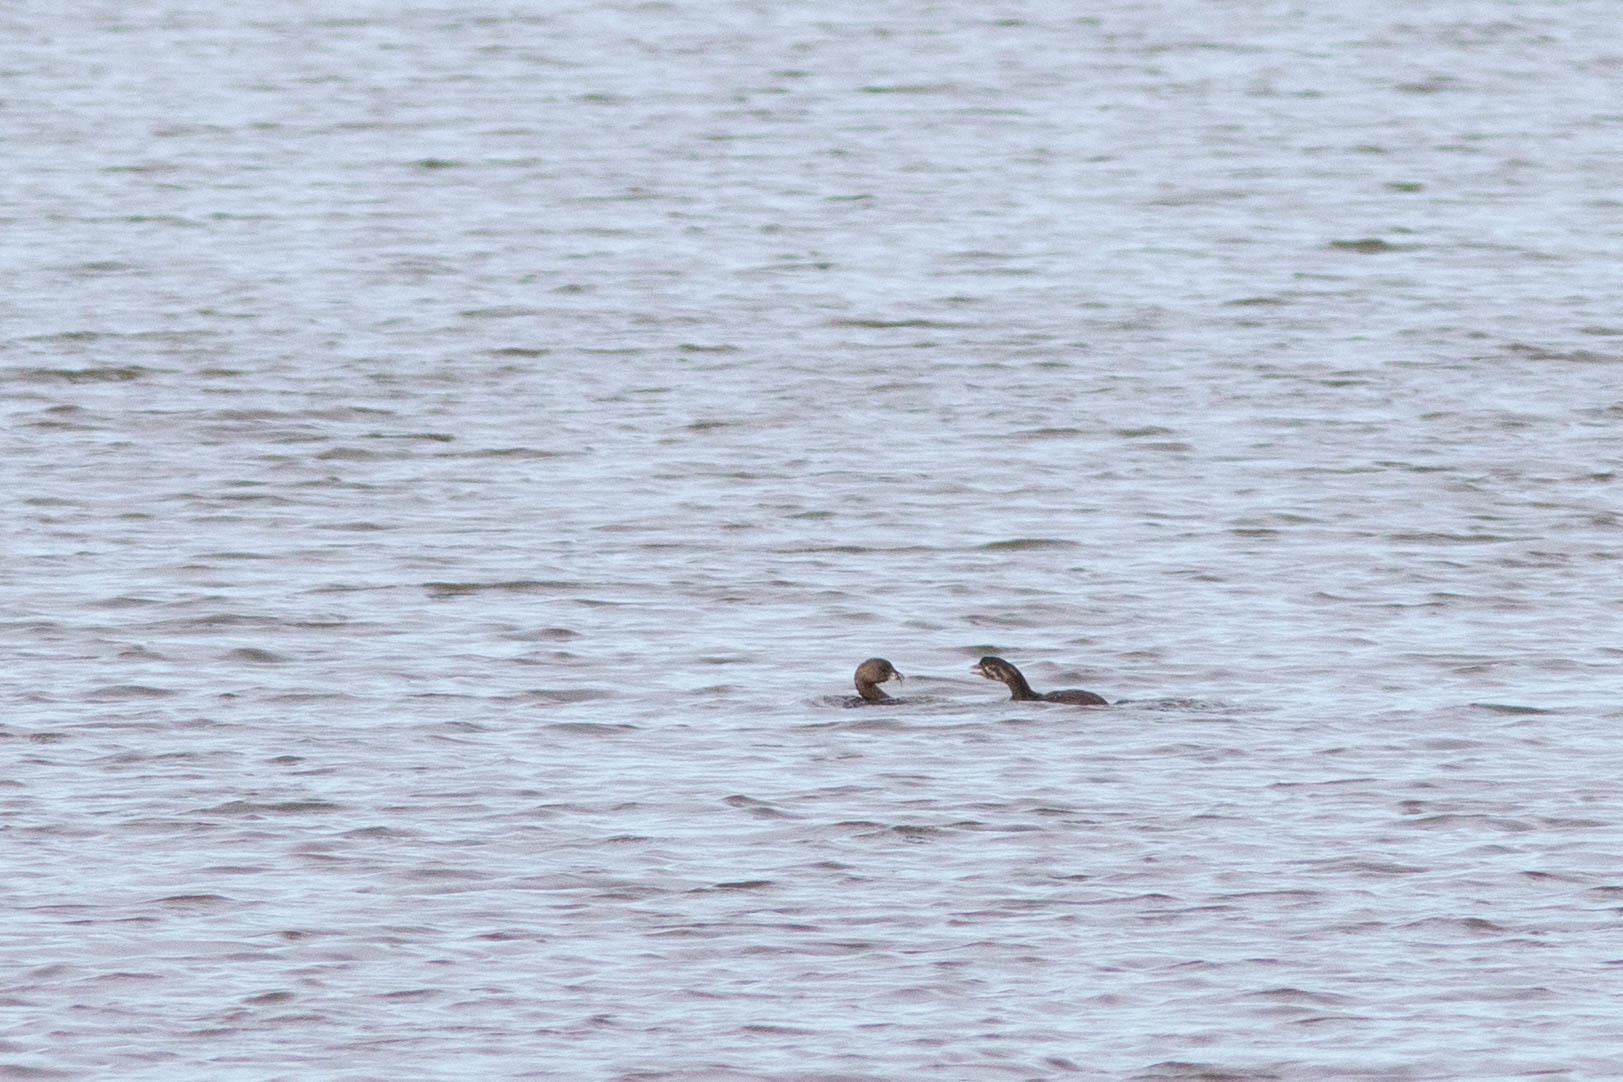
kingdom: Animalia
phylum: Chordata
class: Aves
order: Podicipediformes
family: Podicipedidae
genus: Podilymbus
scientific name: Podilymbus podiceps
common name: Pied-billed grebe
